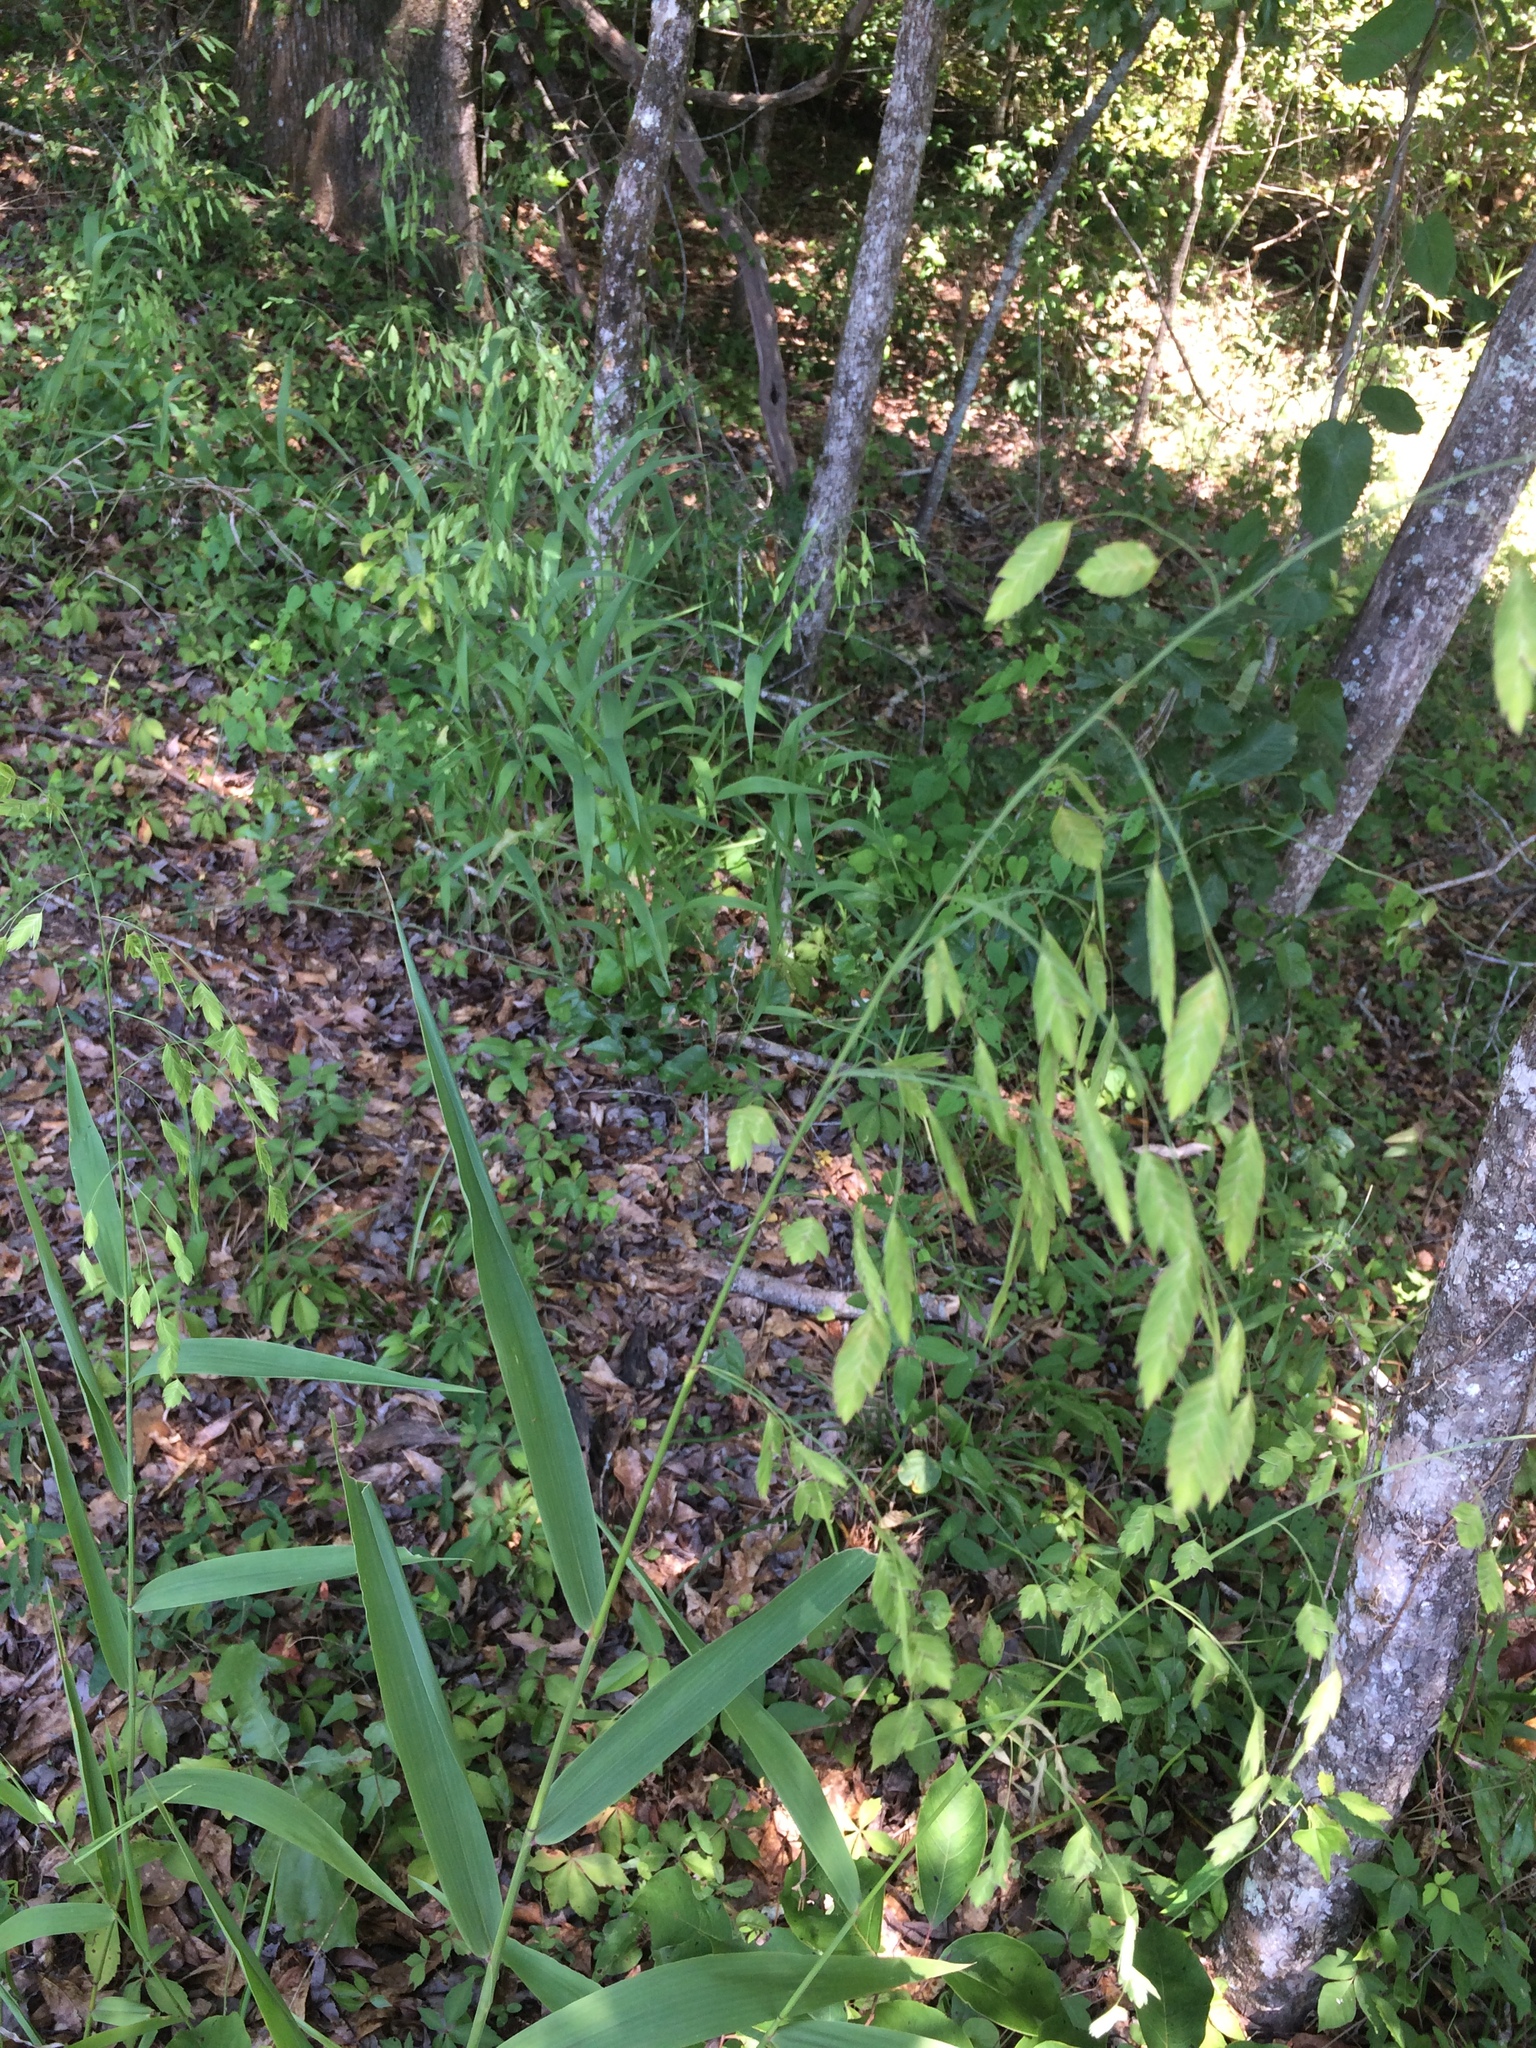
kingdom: Plantae
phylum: Tracheophyta
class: Liliopsida
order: Poales
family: Poaceae
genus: Chasmanthium
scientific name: Chasmanthium latifolium
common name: Broad-leaved chasmanthium
